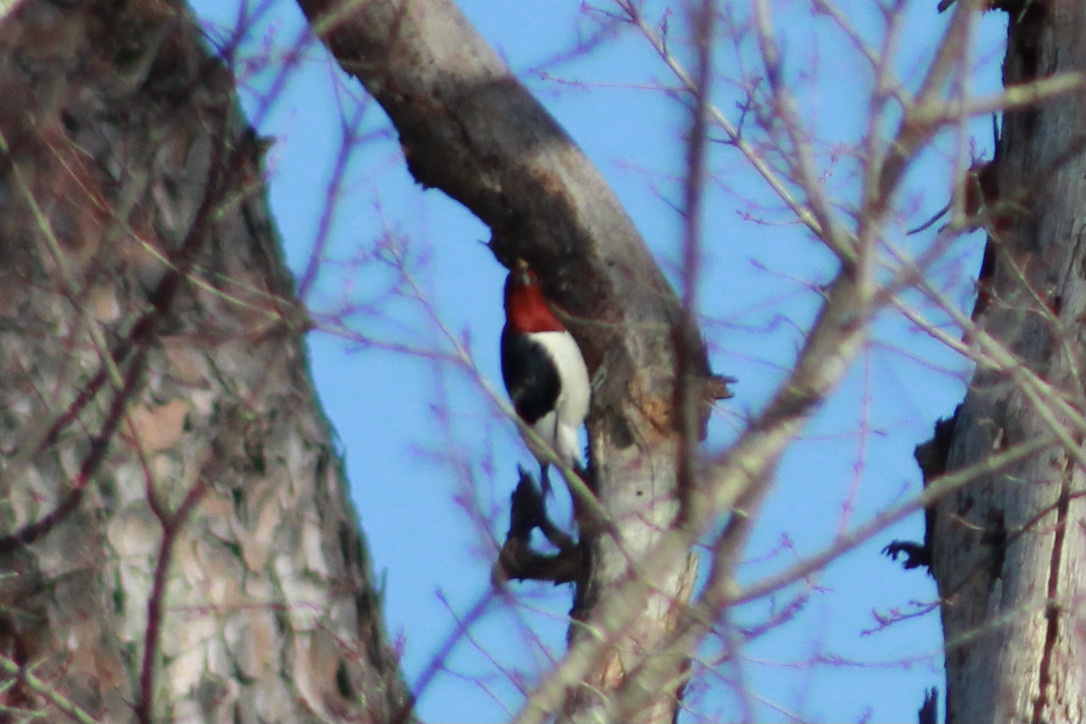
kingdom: Animalia
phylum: Chordata
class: Aves
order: Piciformes
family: Picidae
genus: Melanerpes
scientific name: Melanerpes erythrocephalus
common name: Red-headed woodpecker
